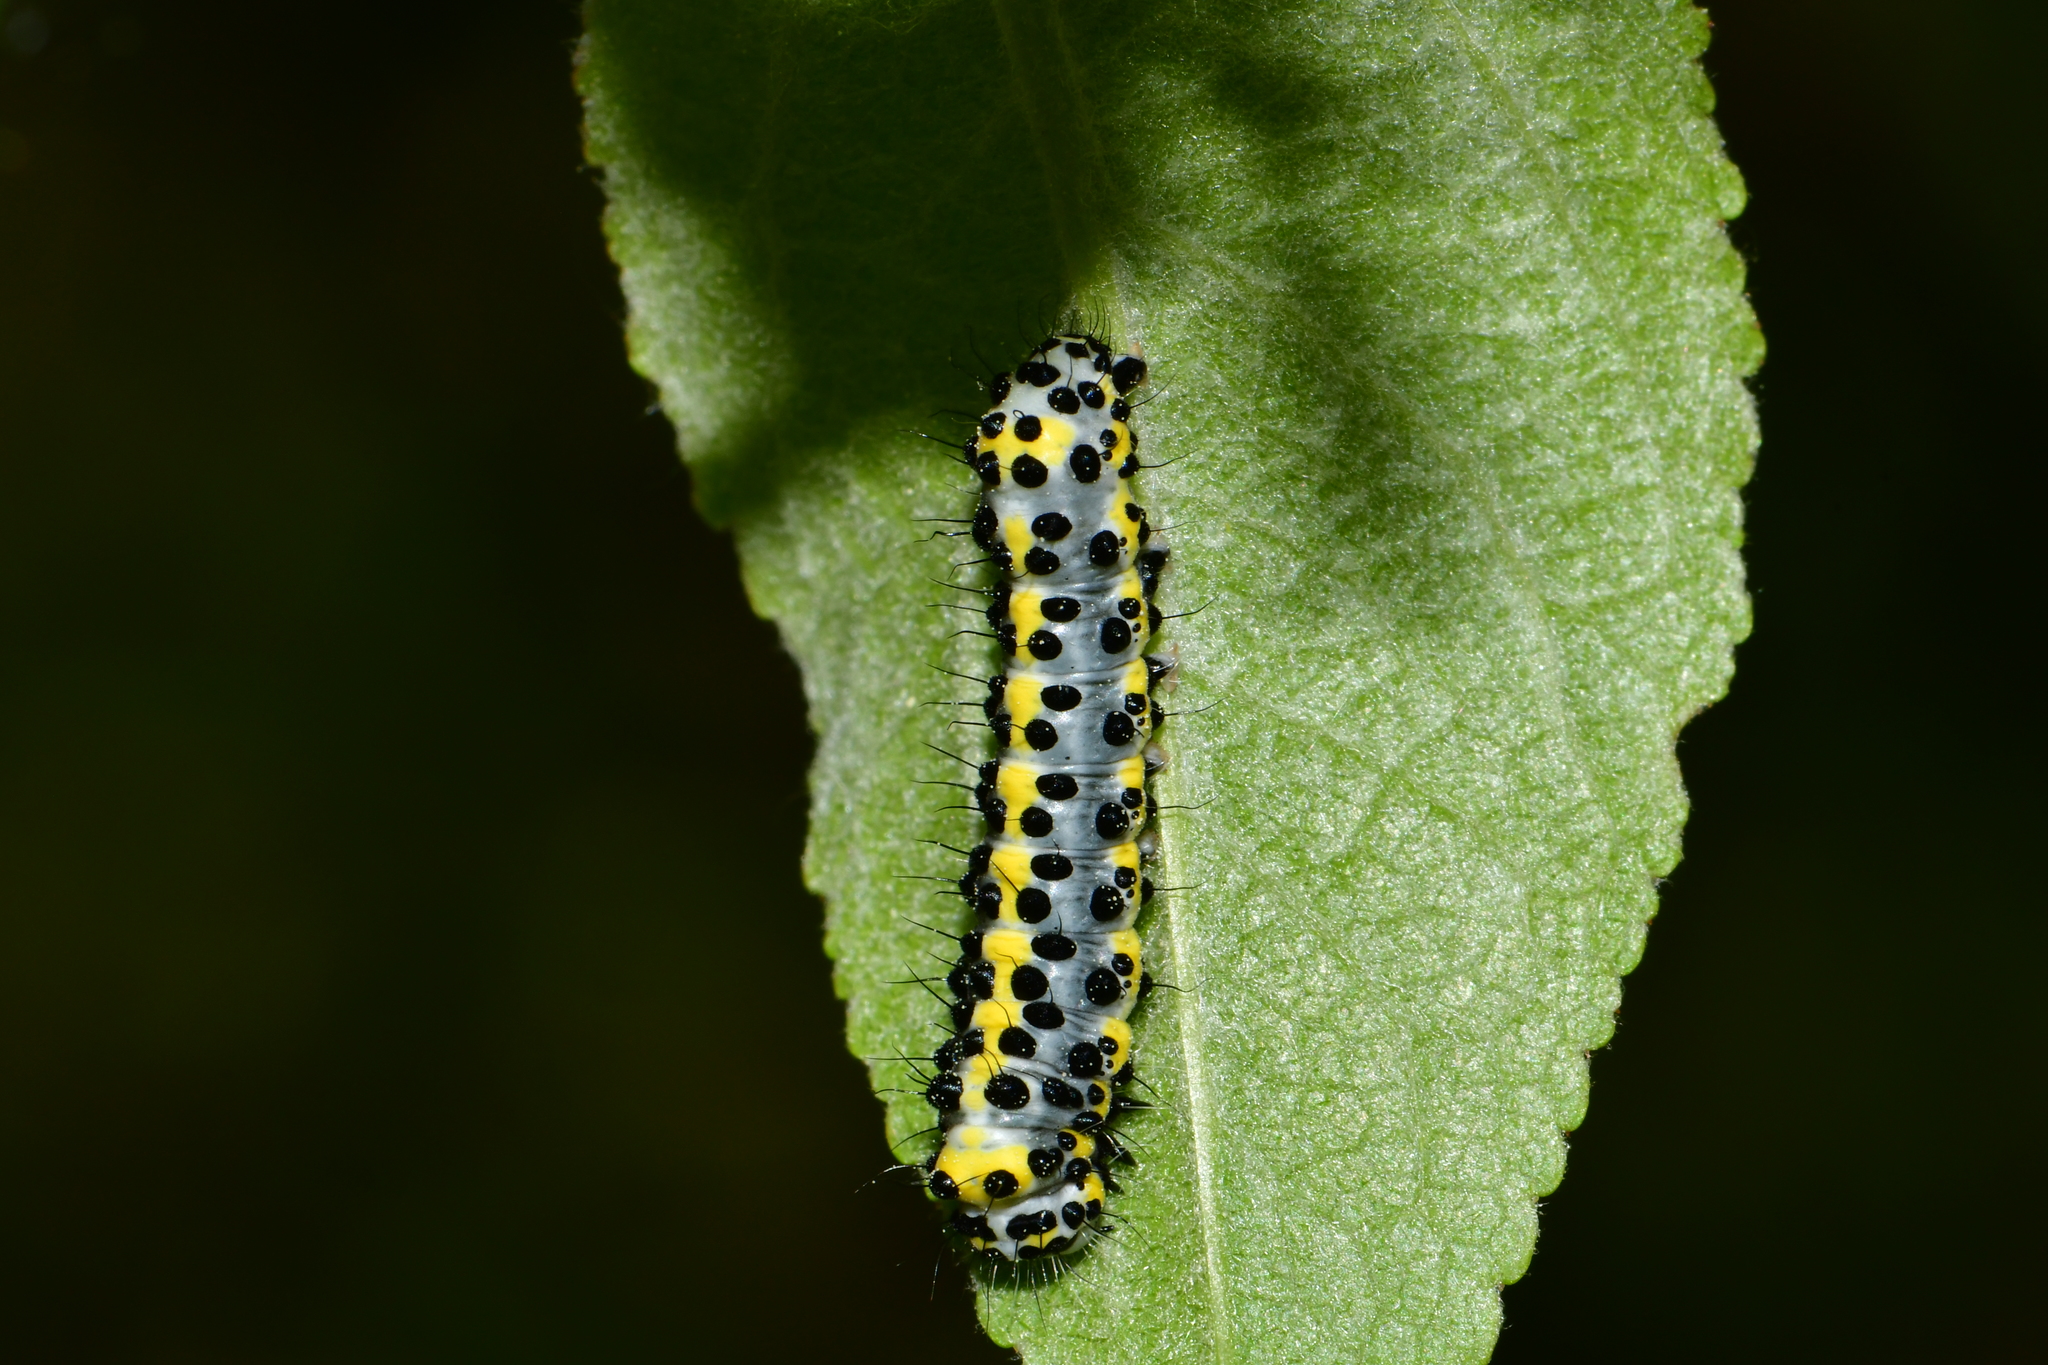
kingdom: Animalia
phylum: Arthropoda
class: Insecta
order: Lepidoptera
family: Noctuidae
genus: Diloba
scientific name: Diloba caeruleocephala
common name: Figure of eight
